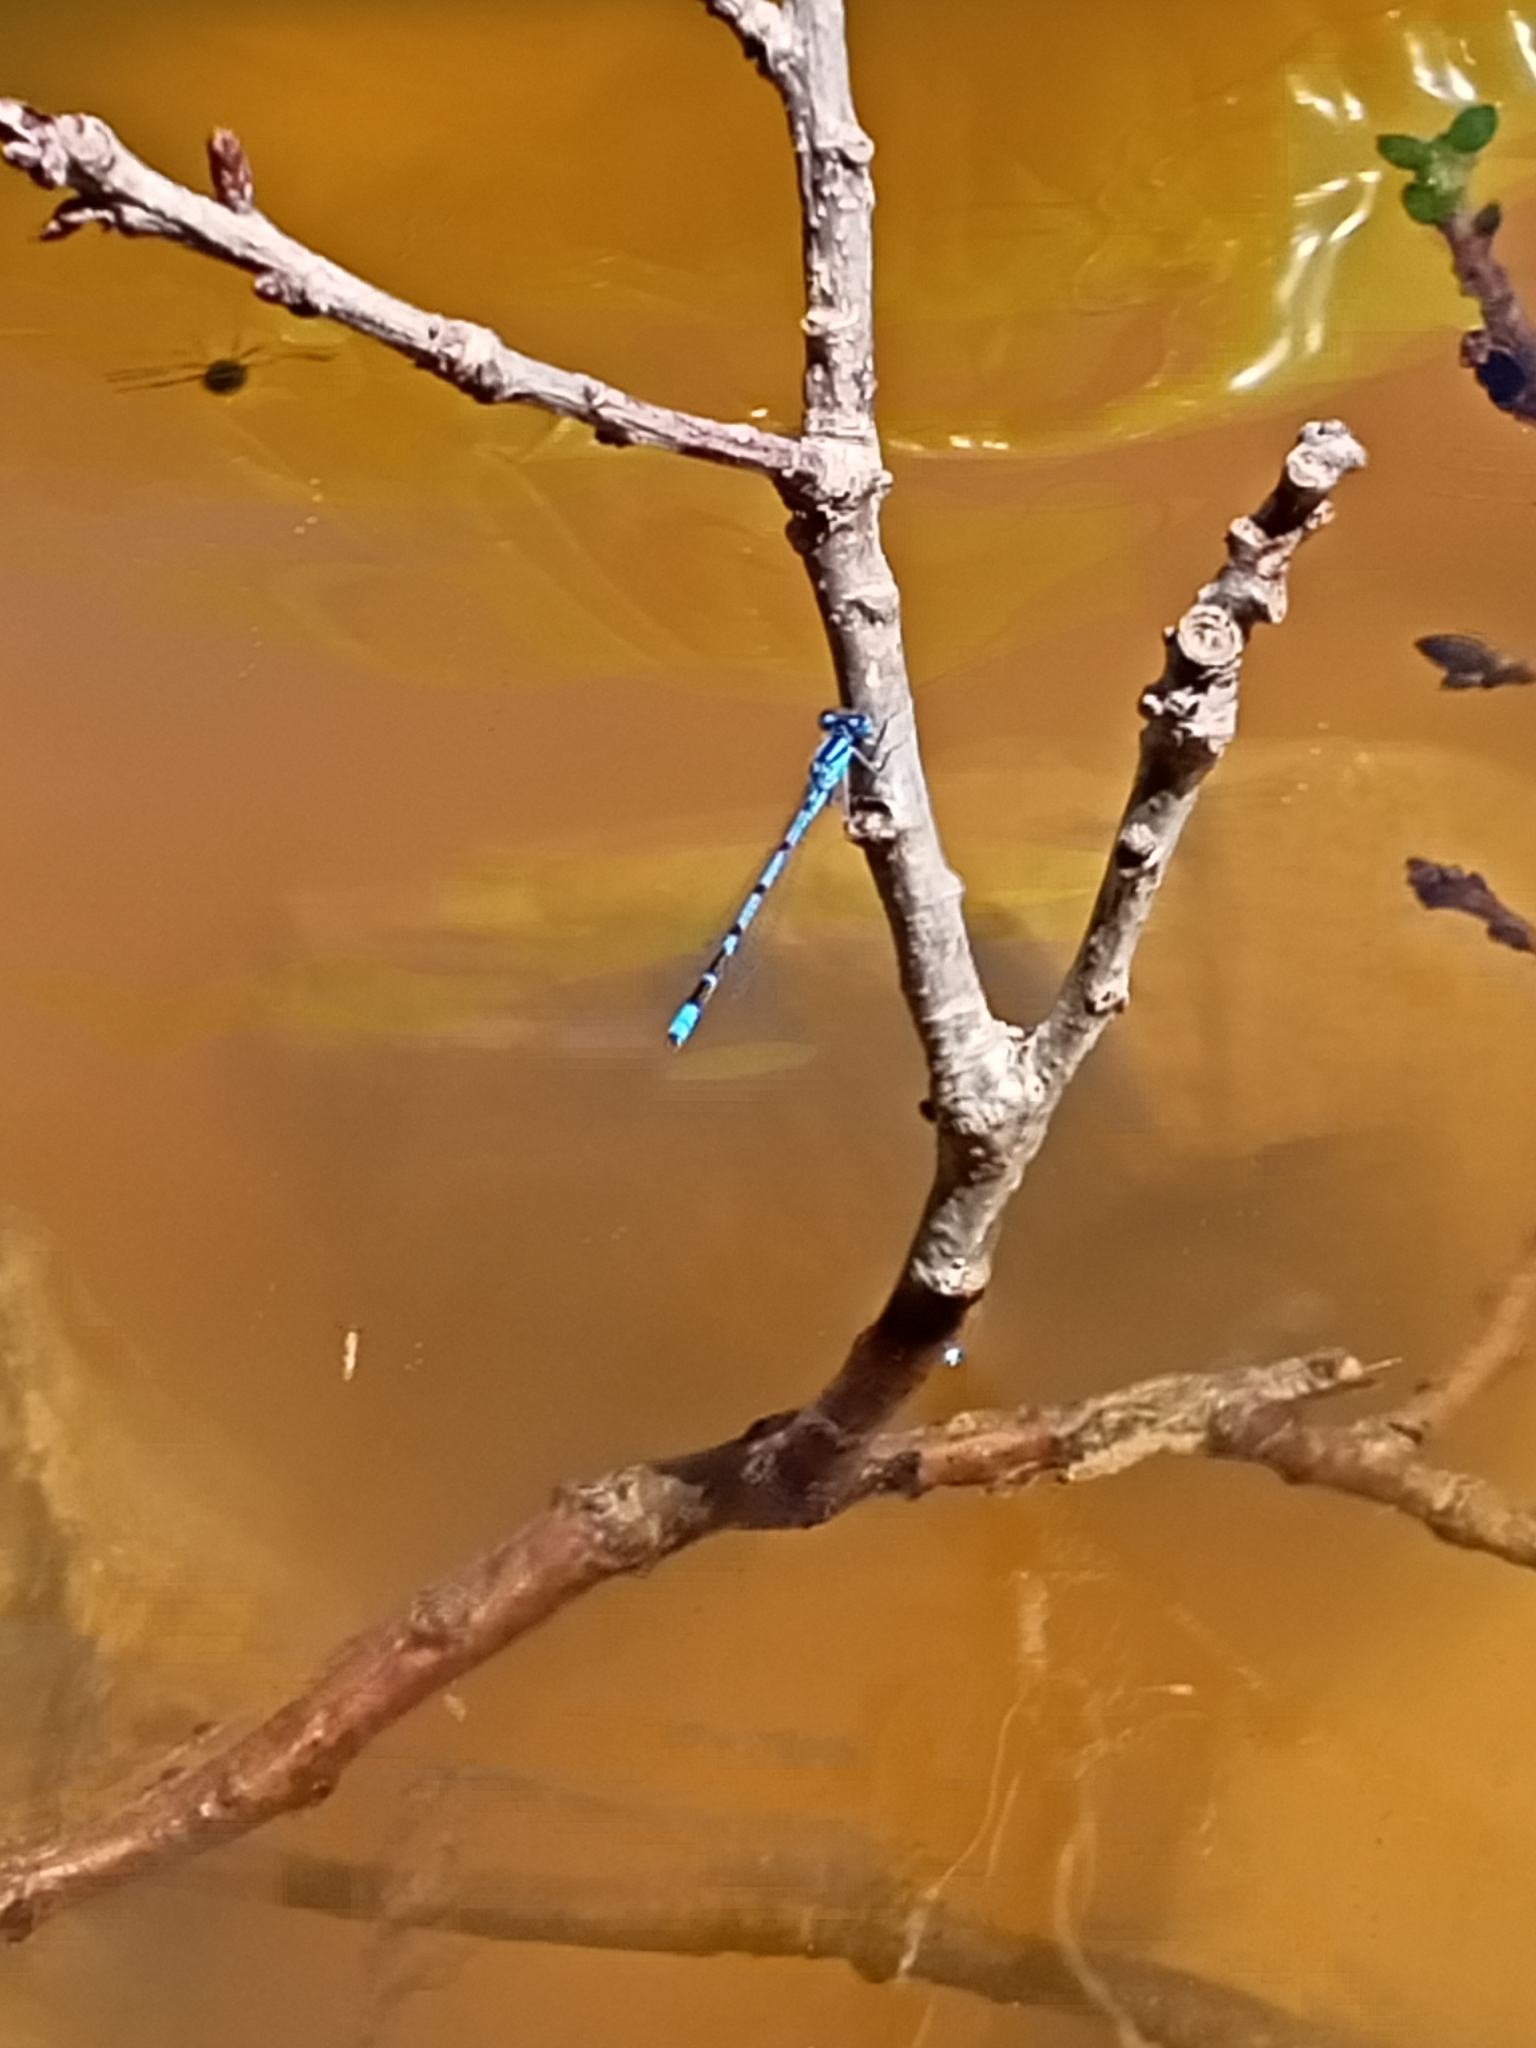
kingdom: Animalia
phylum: Arthropoda
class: Insecta
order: Odonata
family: Coenagrionidae
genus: Enallagma
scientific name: Enallagma cyathigerum
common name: Common blue damselfly
